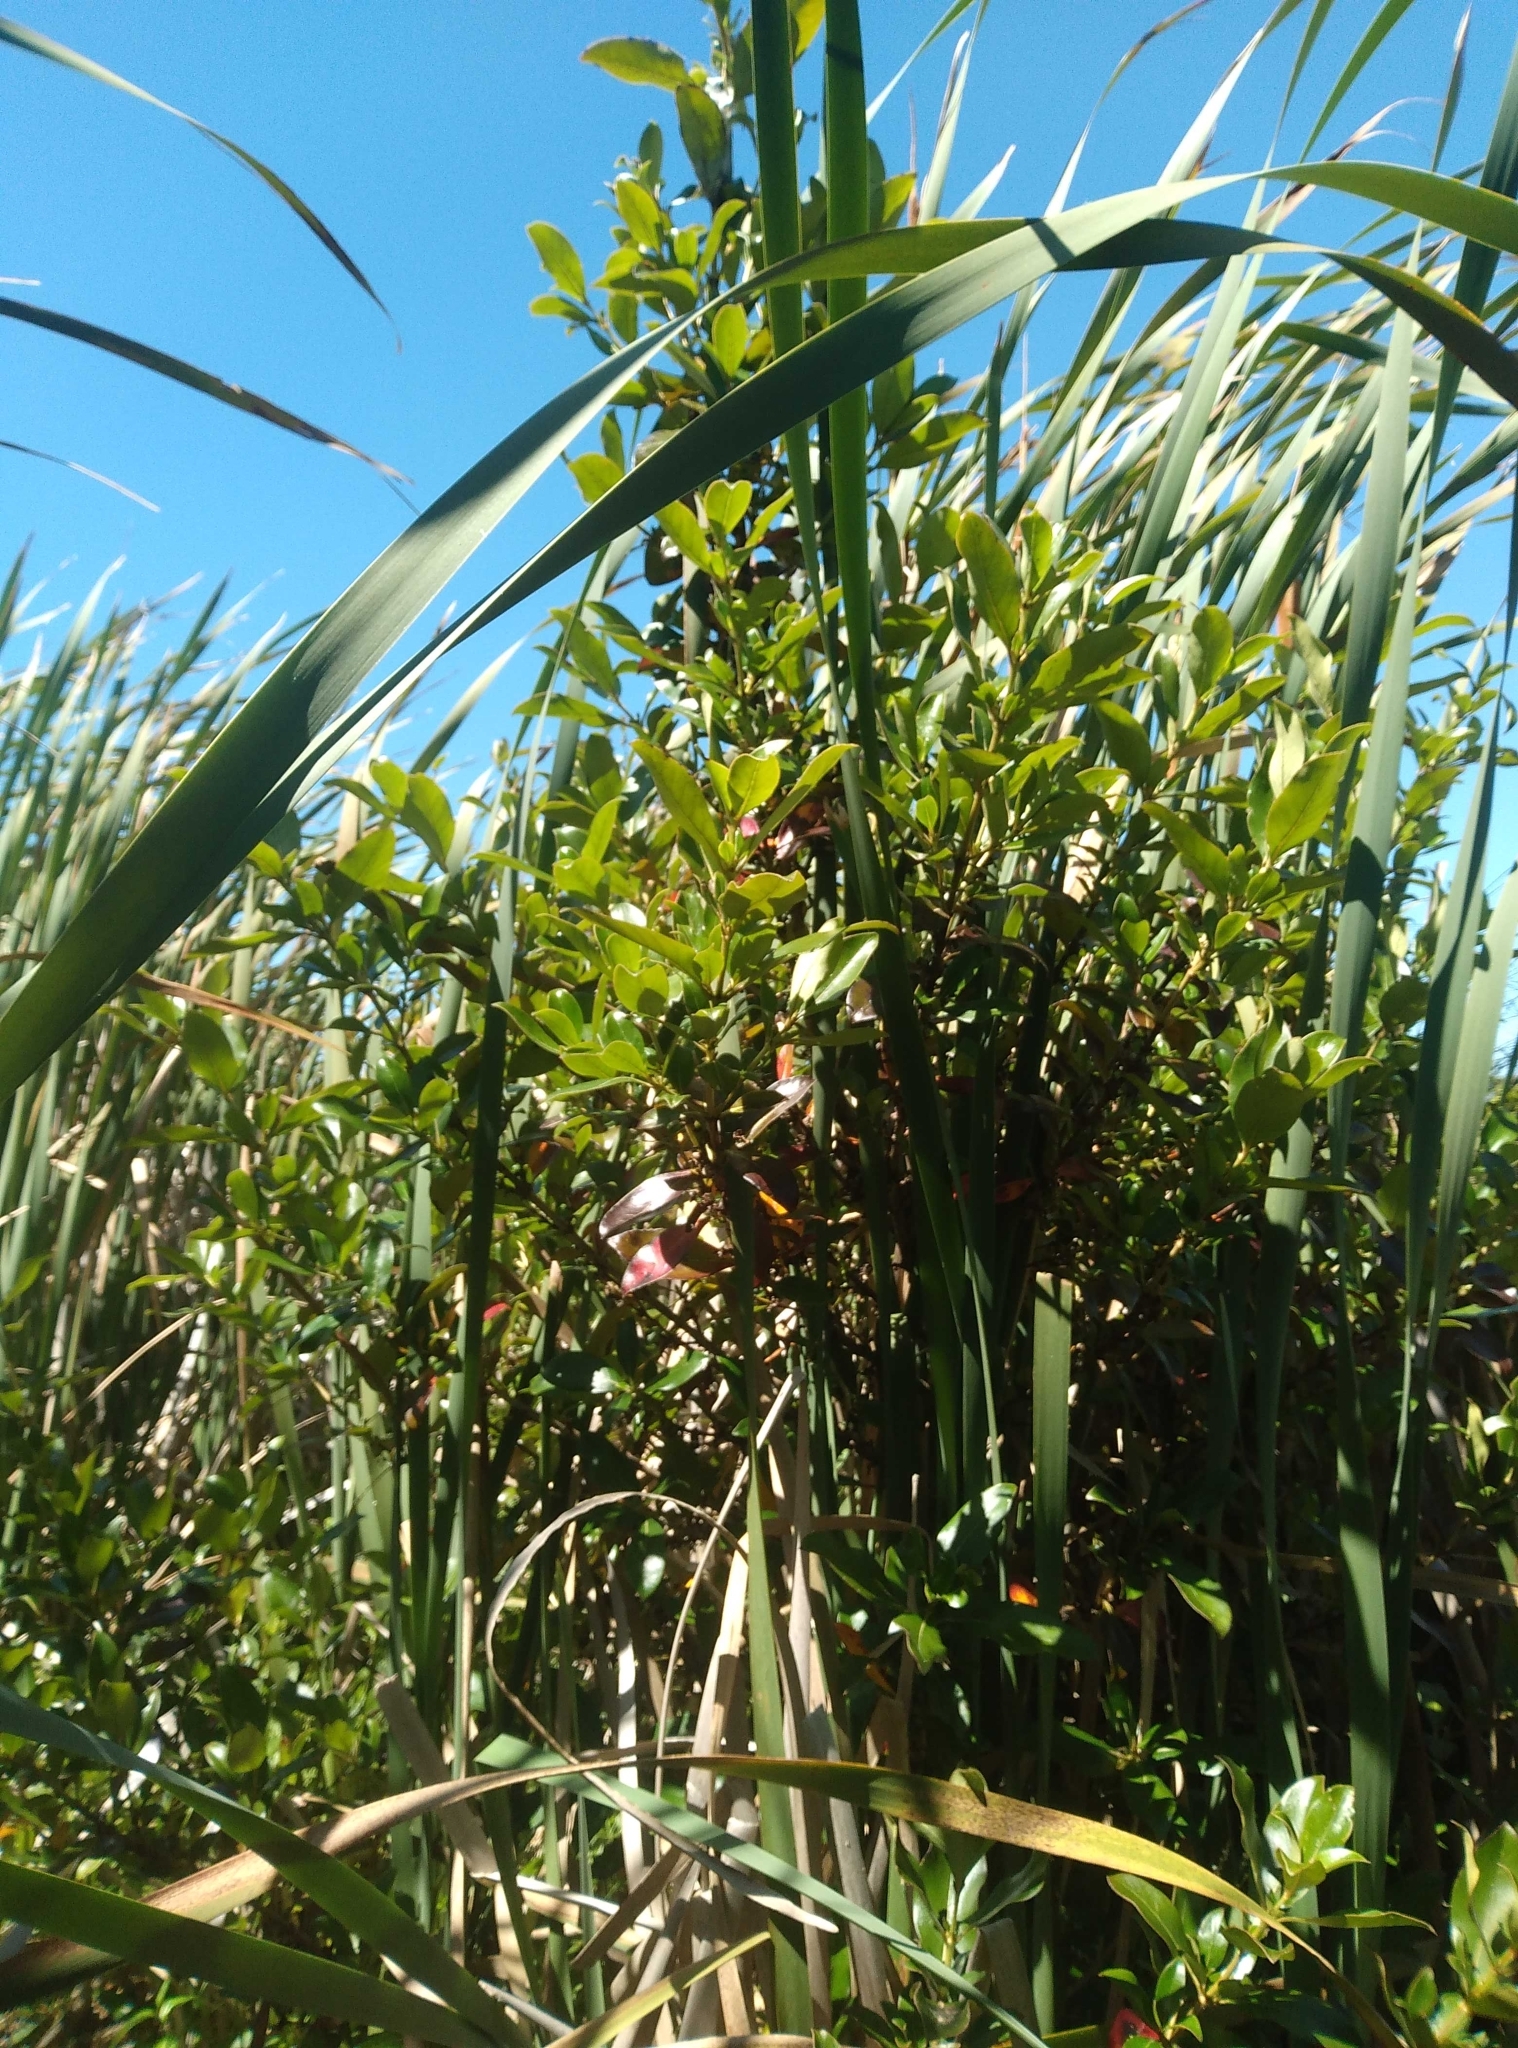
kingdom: Plantae
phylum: Tracheophyta
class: Magnoliopsida
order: Gentianales
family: Rubiaceae
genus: Coprosma
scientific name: Coprosma robusta
